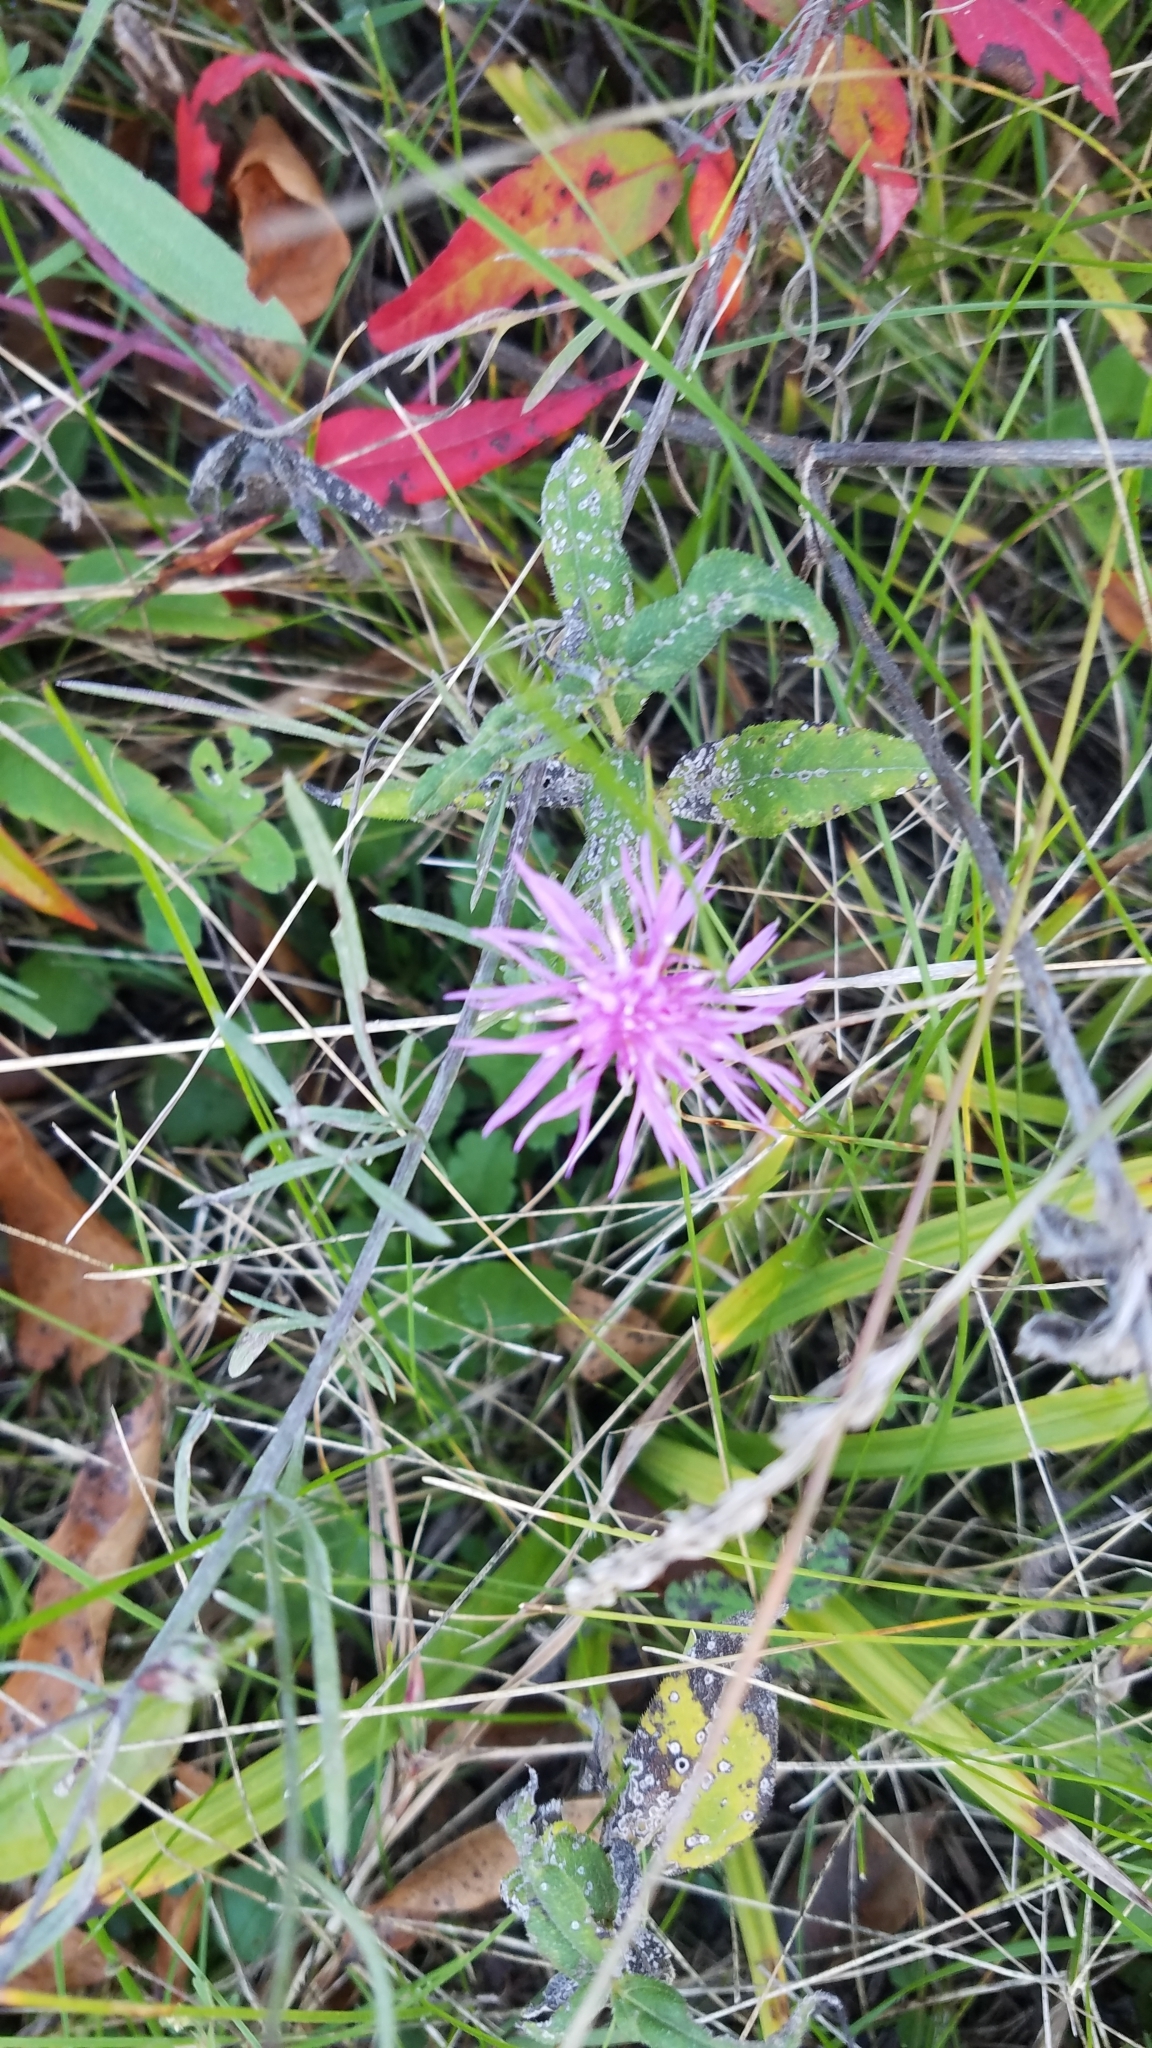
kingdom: Plantae
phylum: Tracheophyta
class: Magnoliopsida
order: Asterales
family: Asteraceae
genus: Centaurea
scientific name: Centaurea stoebe
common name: Spotted knapweed
